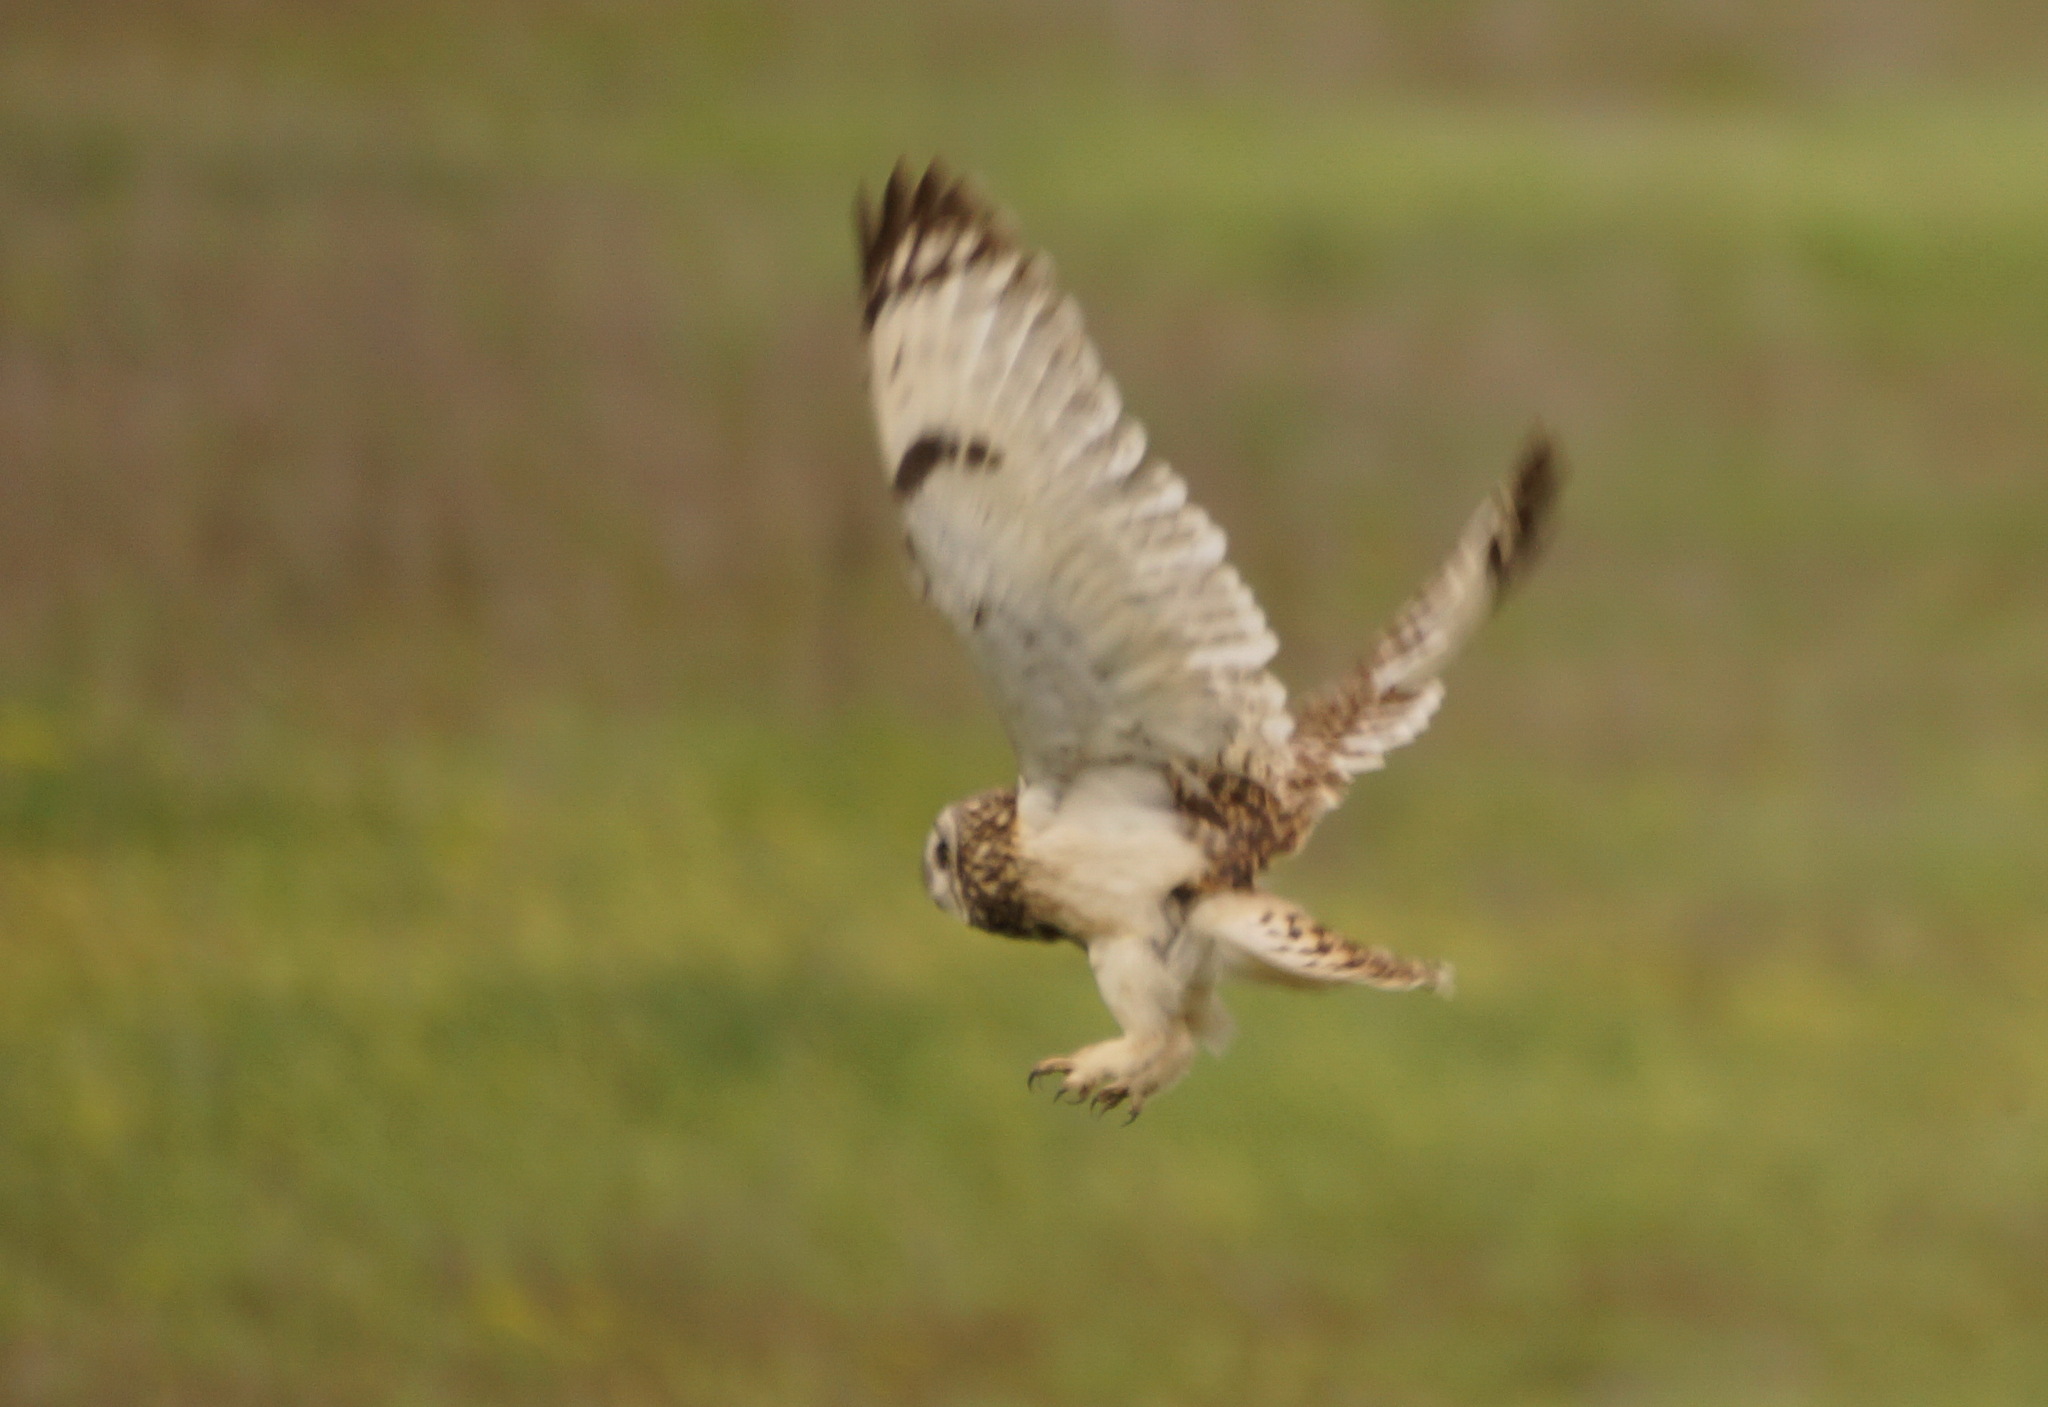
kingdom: Animalia
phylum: Chordata
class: Aves
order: Strigiformes
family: Strigidae
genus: Asio
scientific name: Asio flammeus
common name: Short-eared owl
